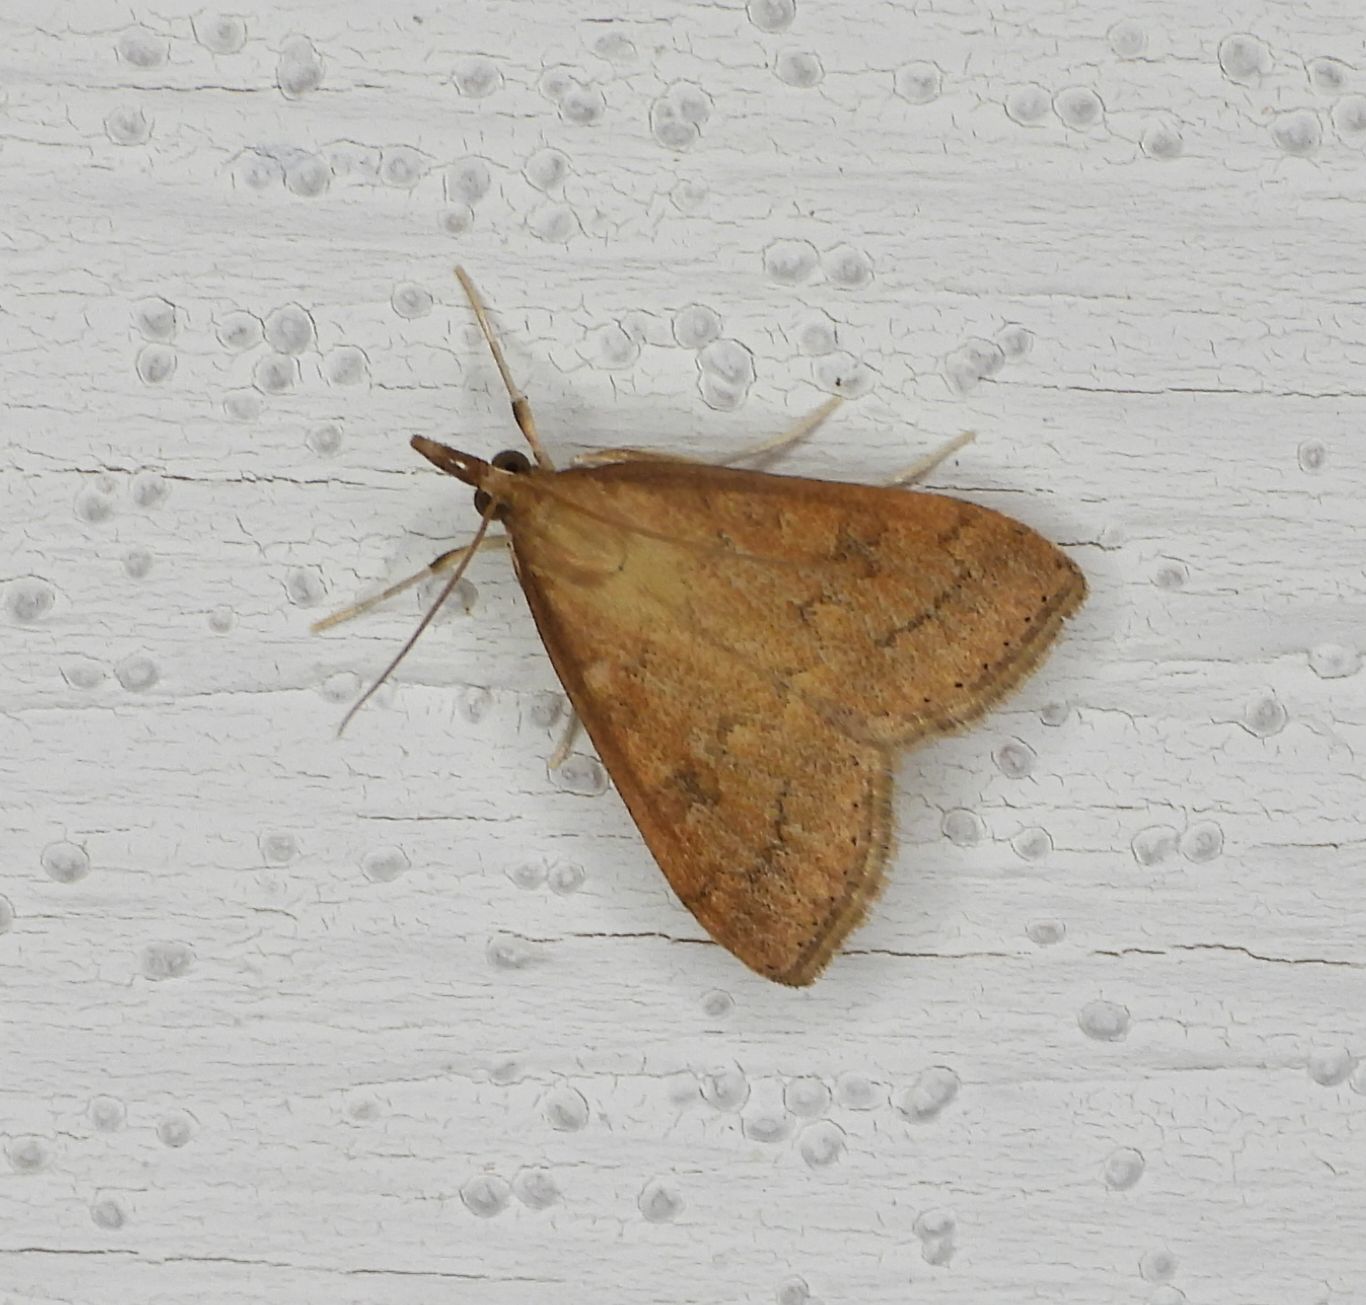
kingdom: Animalia
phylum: Arthropoda
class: Insecta
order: Lepidoptera
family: Crambidae
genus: Udea
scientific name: Udea rubigalis
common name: Celery leaftier moth
